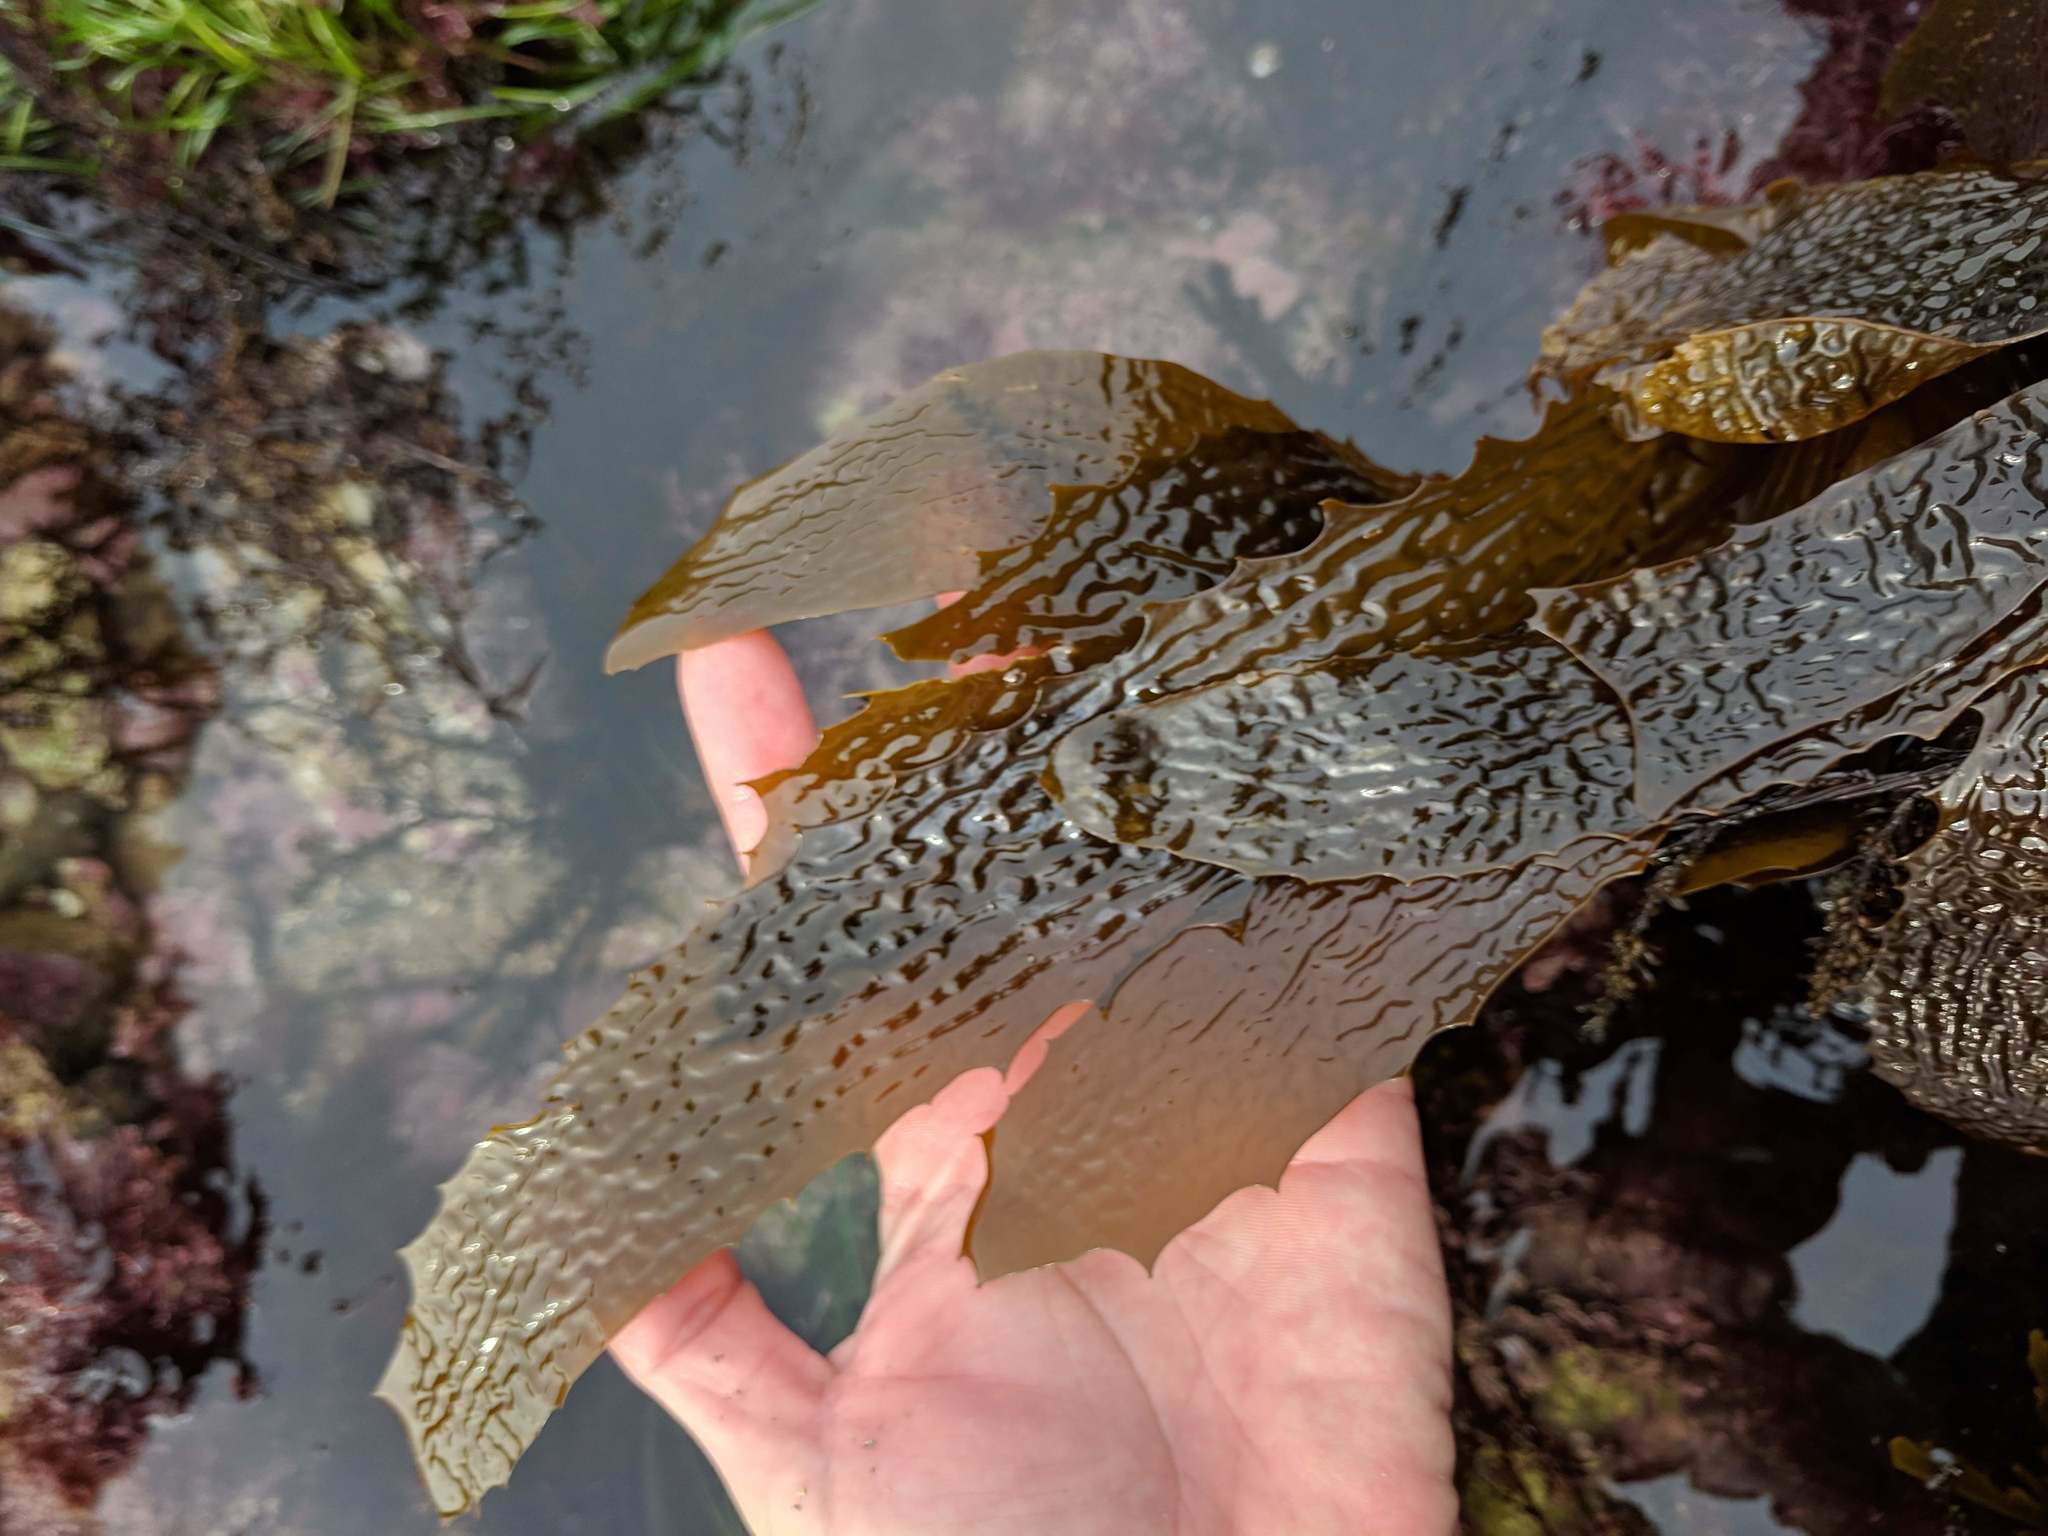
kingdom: Chromista
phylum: Ochrophyta
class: Phaeophyceae
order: Laminariales
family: Lessoniaceae
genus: Eisenia
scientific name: Eisenia arborea
